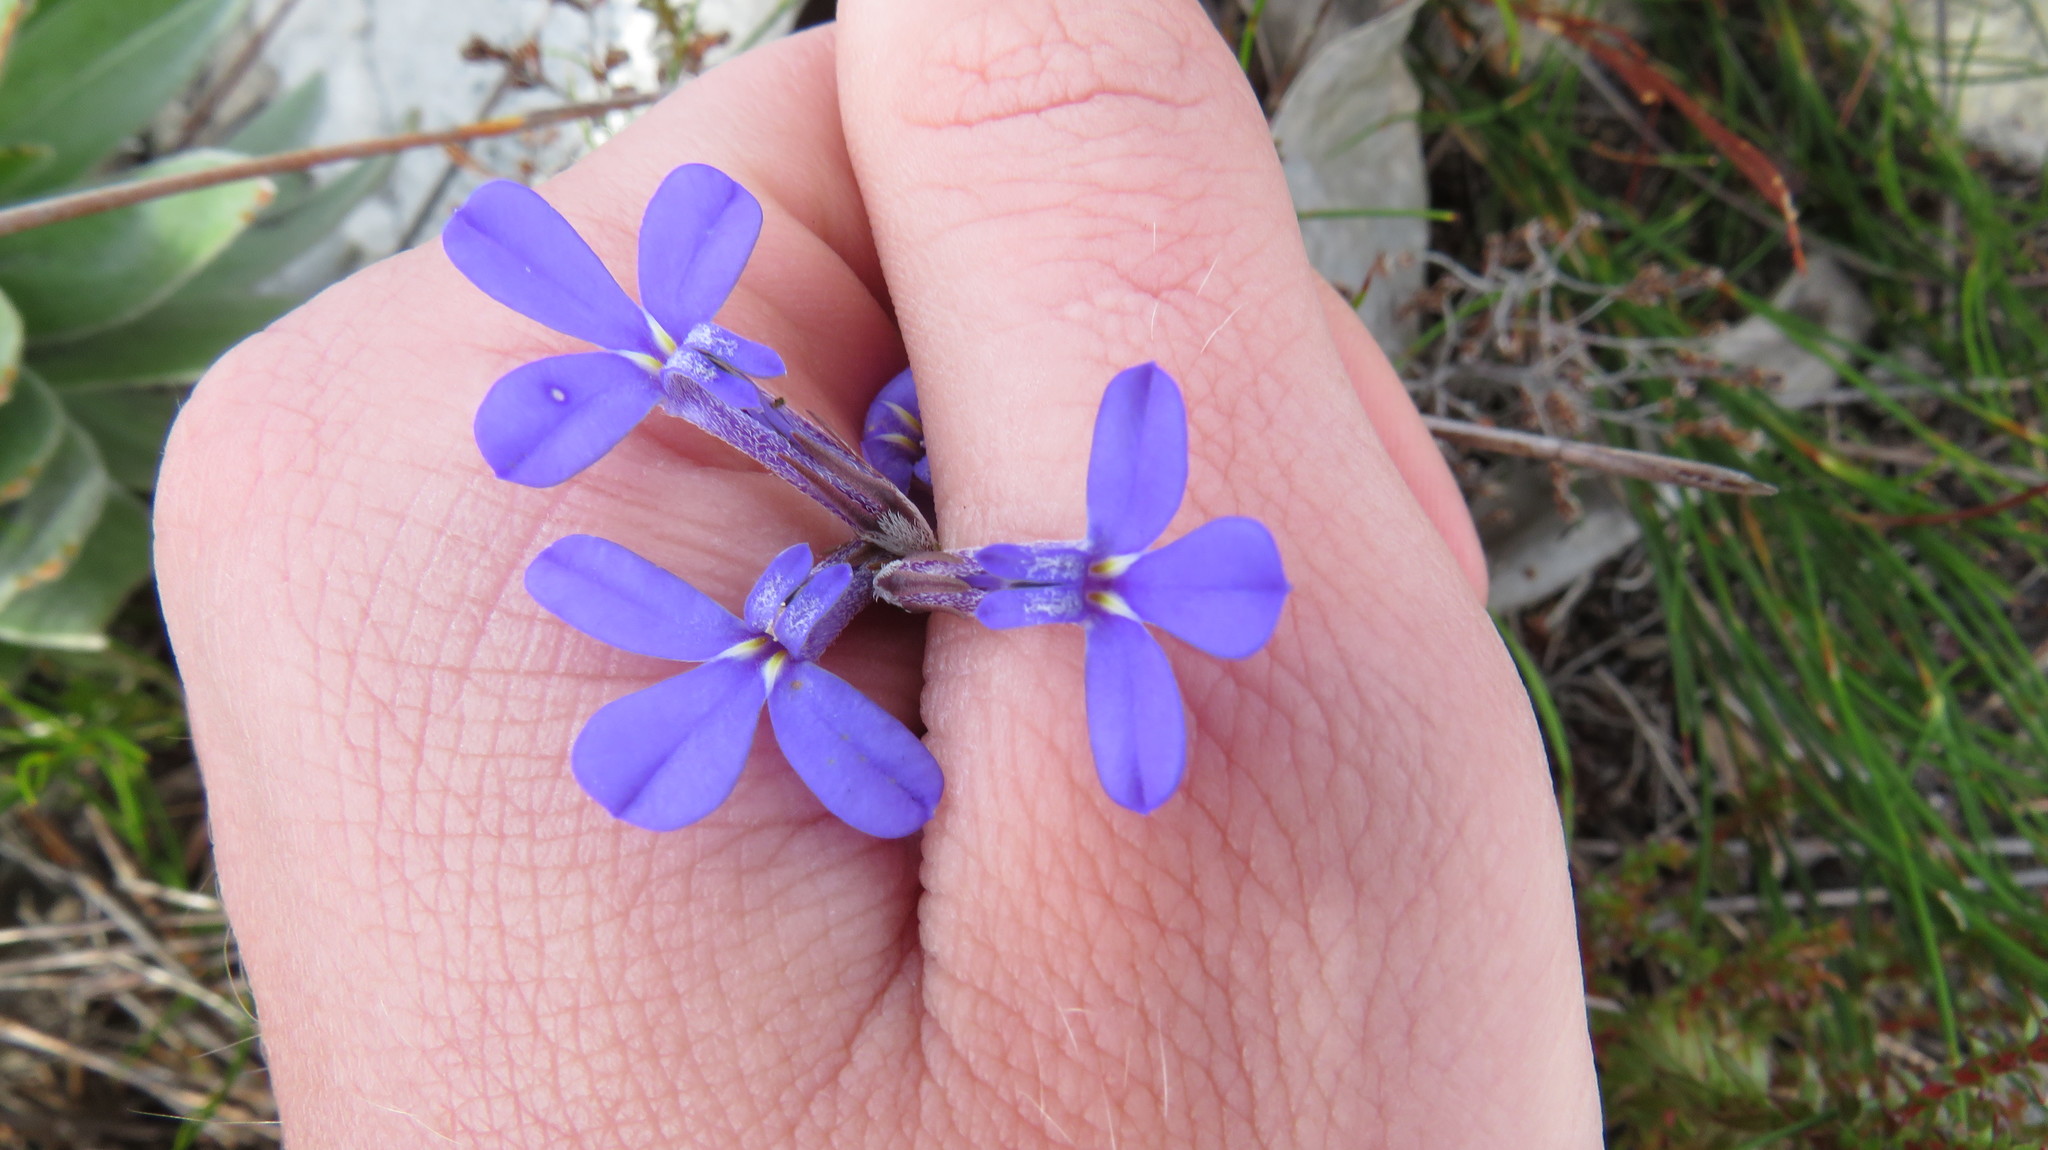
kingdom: Plantae
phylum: Tracheophyta
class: Magnoliopsida
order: Asterales
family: Campanulaceae
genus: Lobelia
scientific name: Lobelia pinifolia
